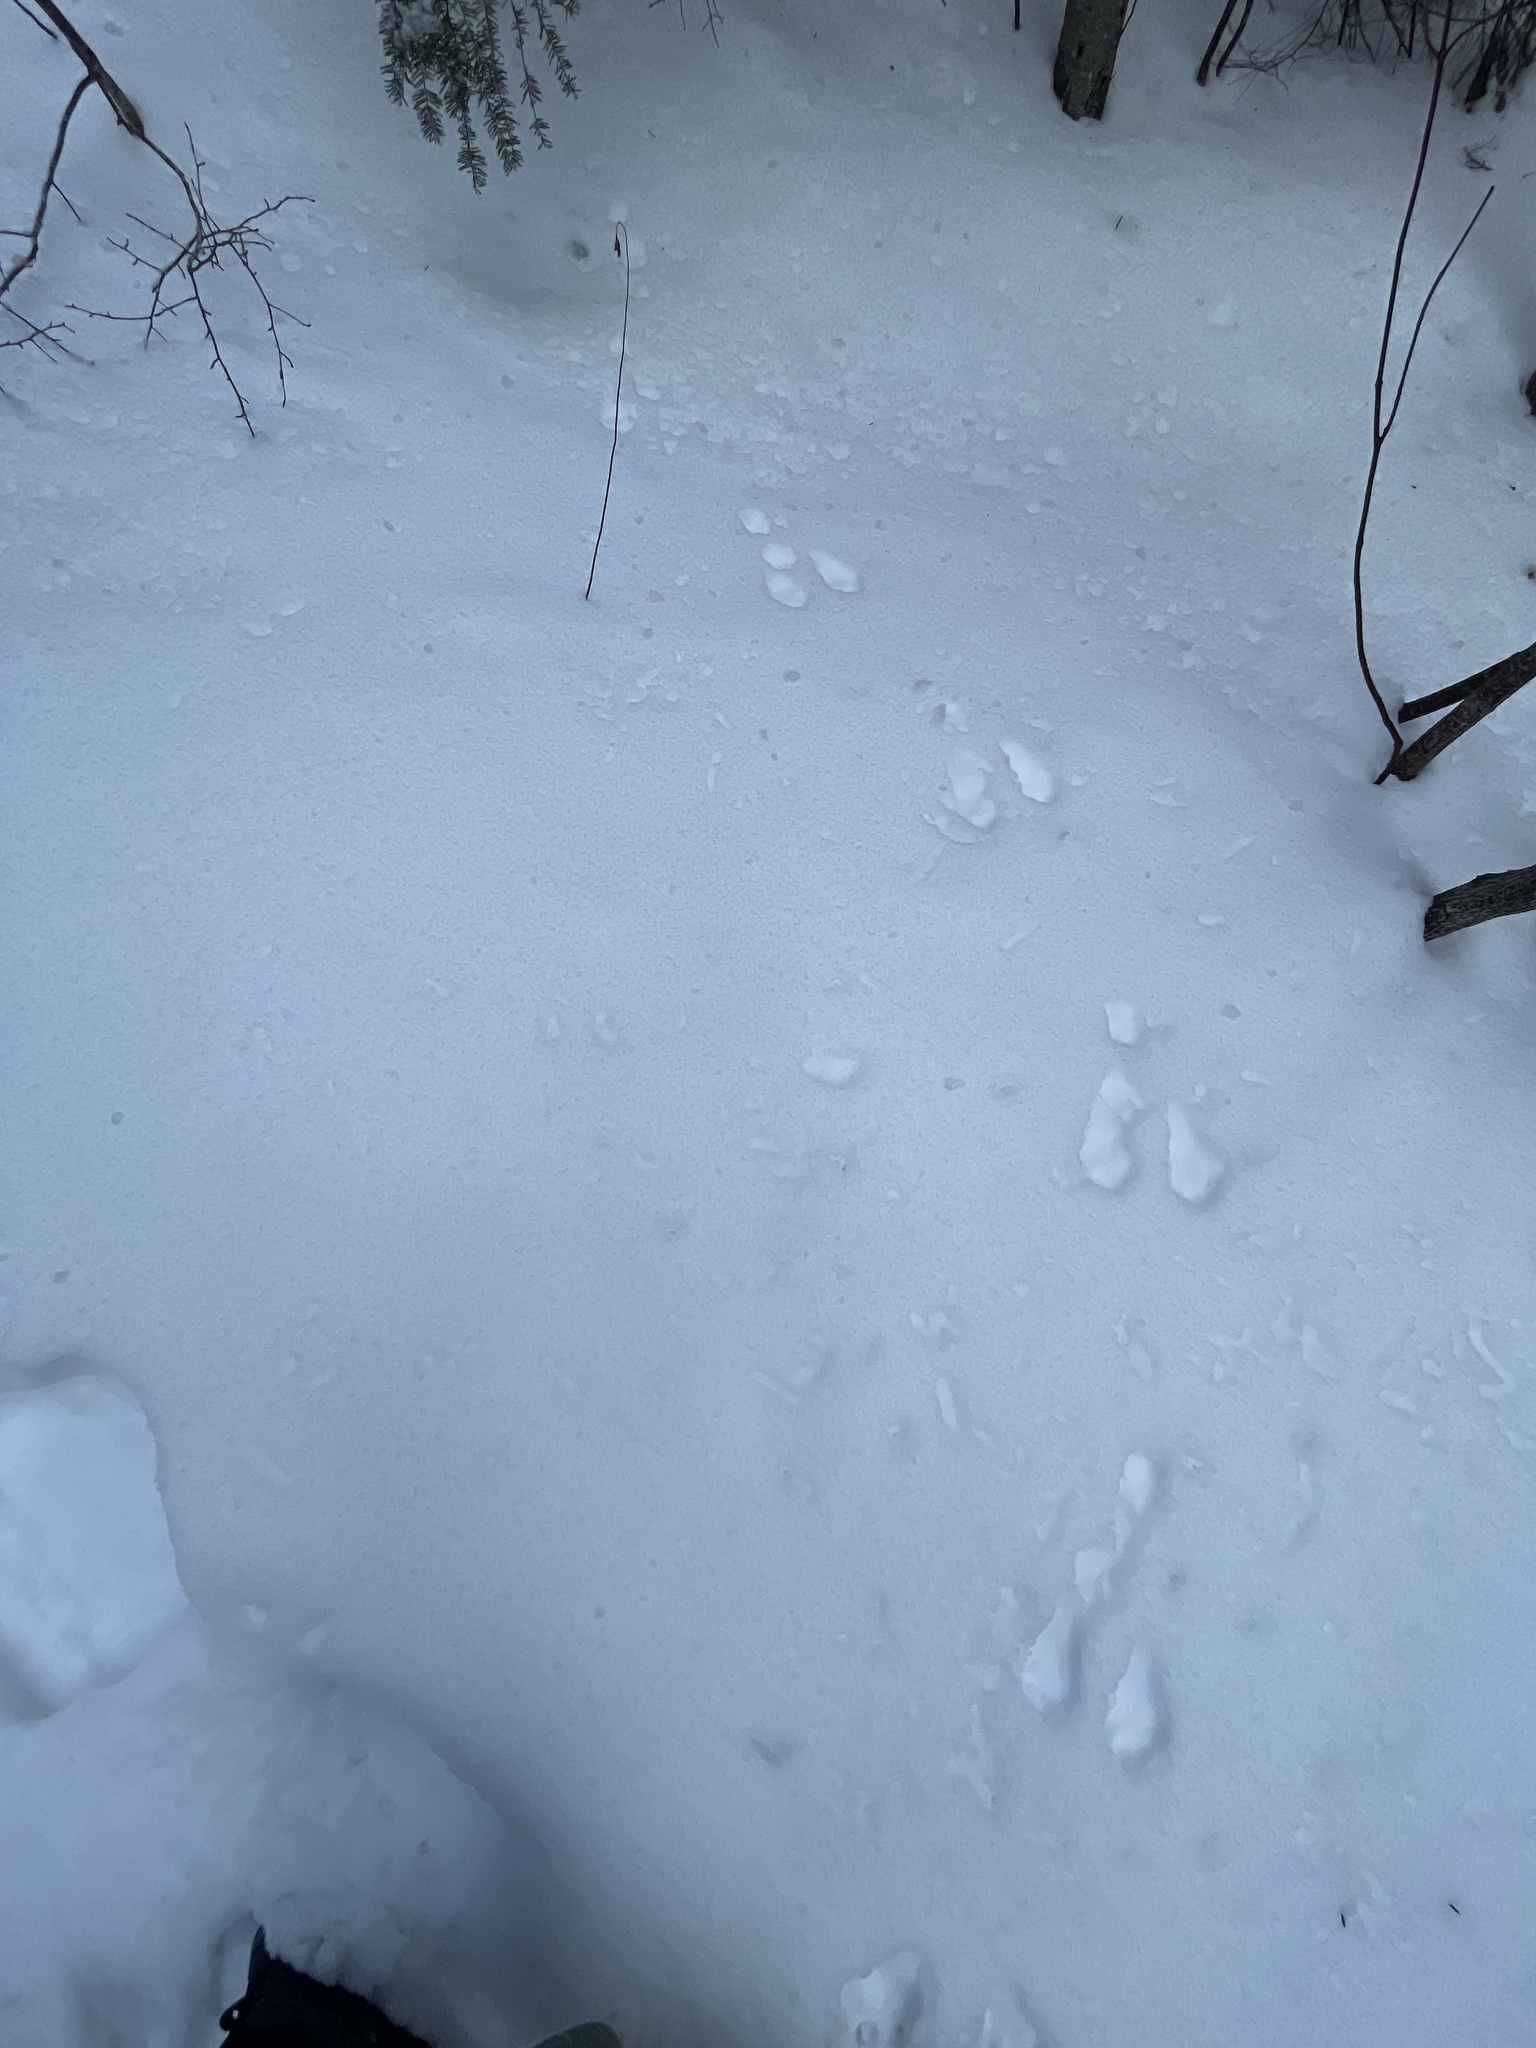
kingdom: Animalia
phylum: Chordata
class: Mammalia
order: Lagomorpha
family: Leporidae
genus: Lepus
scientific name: Lepus americanus
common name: Snowshoe hare
